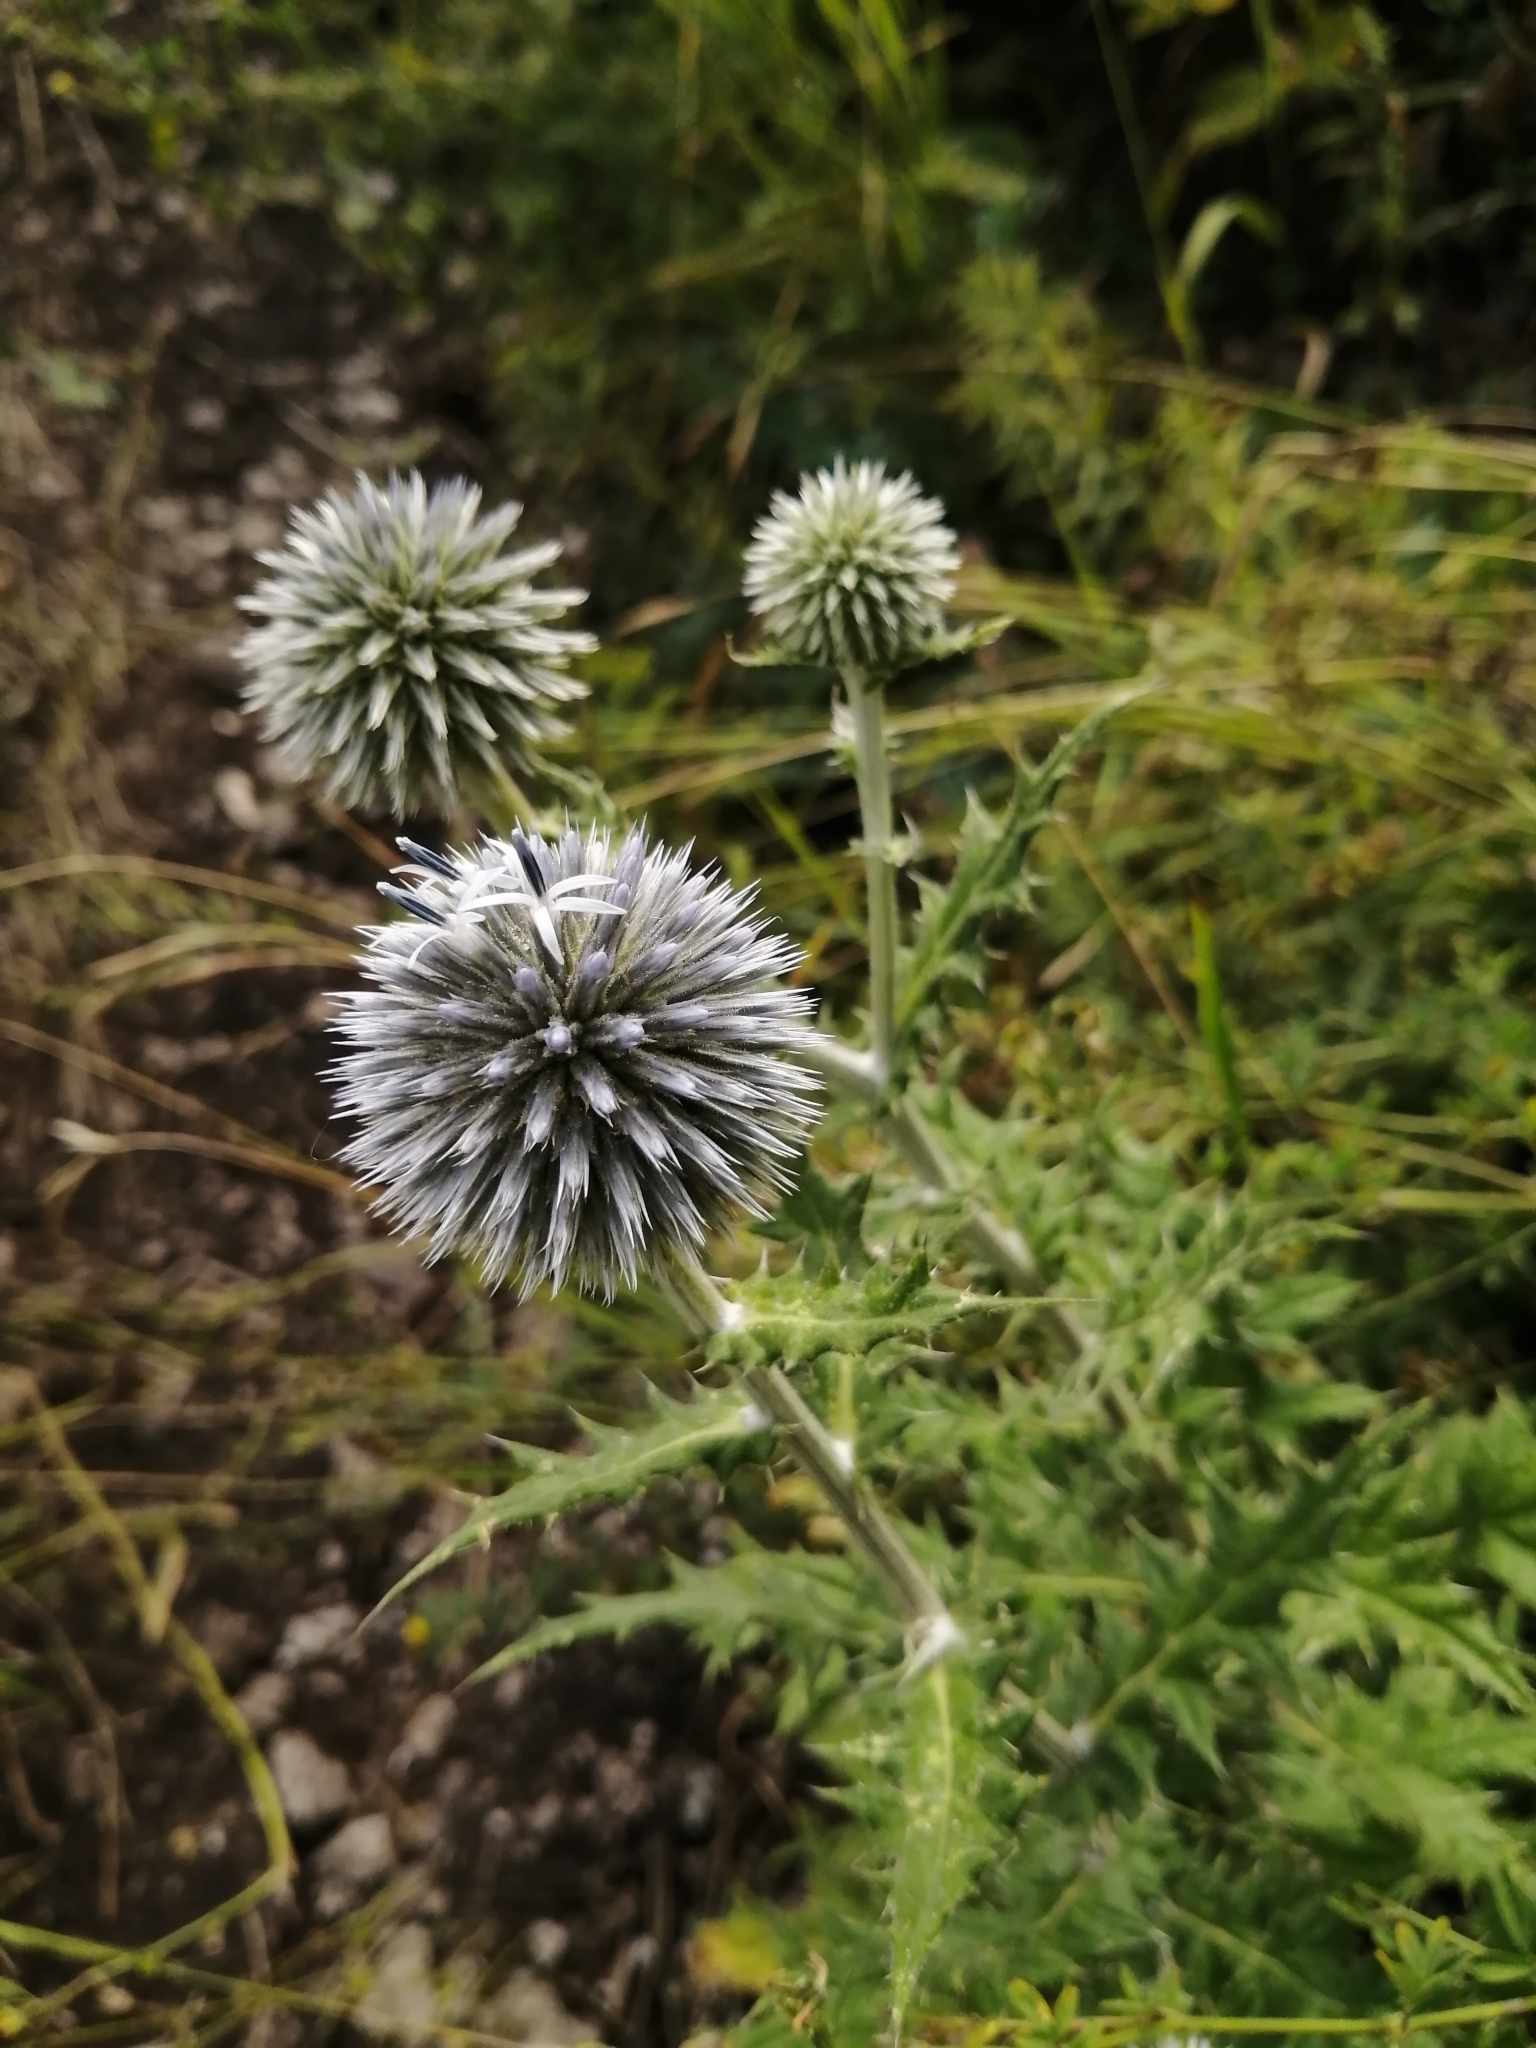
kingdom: Plantae
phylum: Tracheophyta
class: Magnoliopsida
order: Asterales
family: Asteraceae
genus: Echinops
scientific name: Echinops sphaerocephalus
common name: Glandular globe-thistle
